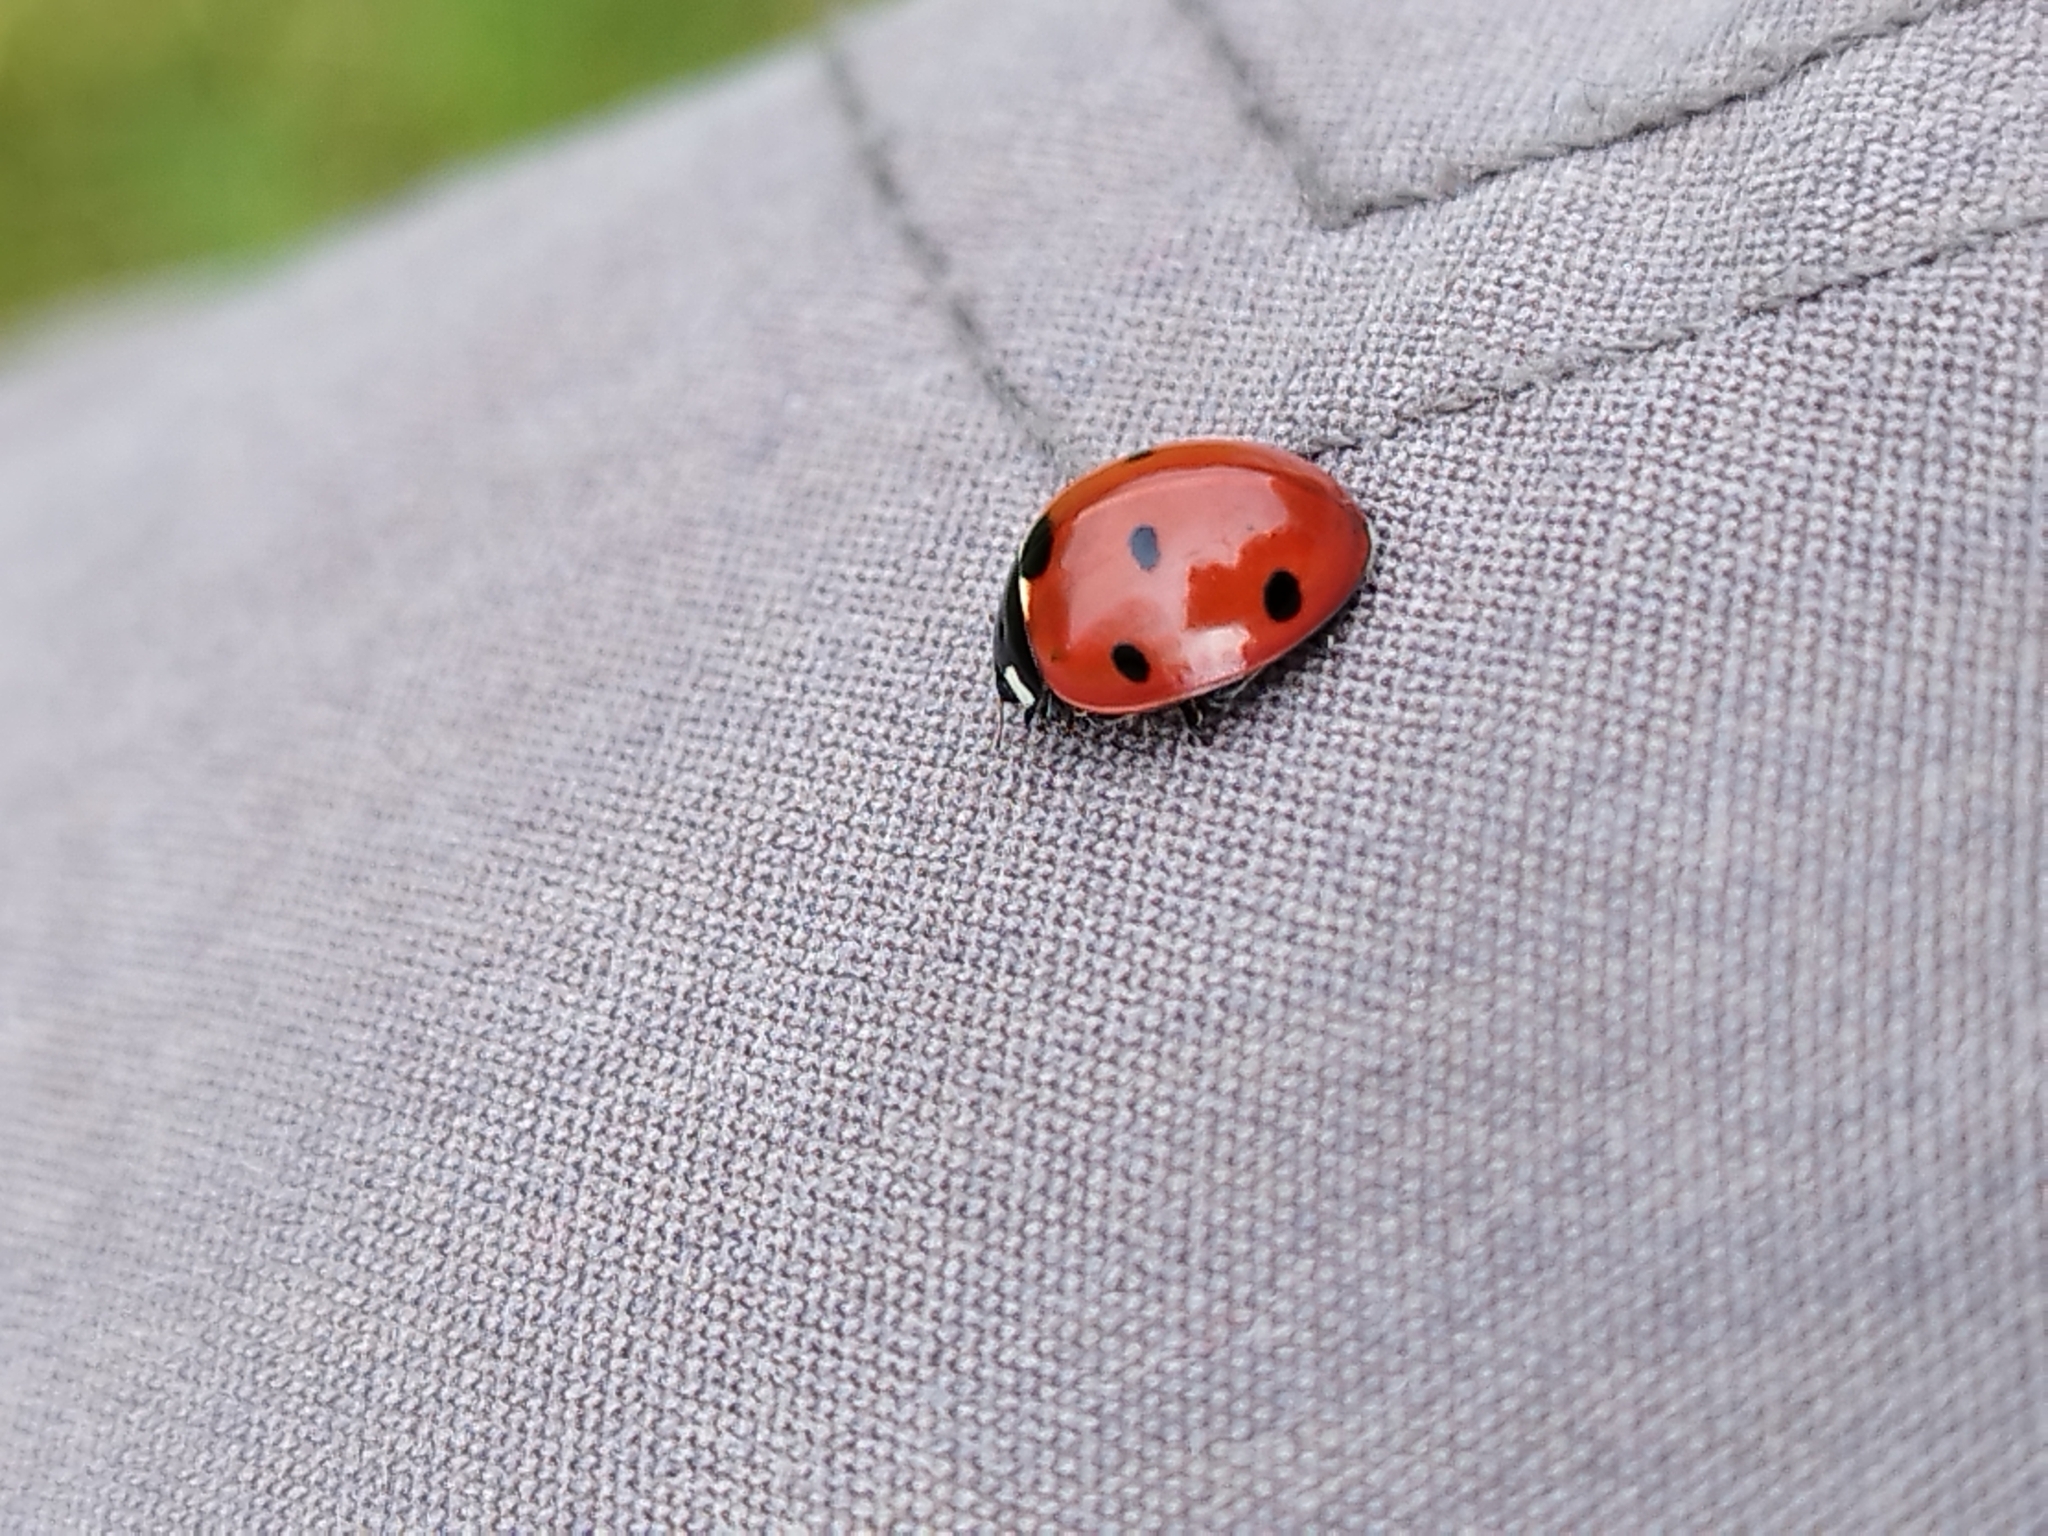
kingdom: Animalia
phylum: Arthropoda
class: Insecta
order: Coleoptera
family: Coccinellidae
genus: Coccinella
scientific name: Coccinella septempunctata
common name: Sevenspotted lady beetle
